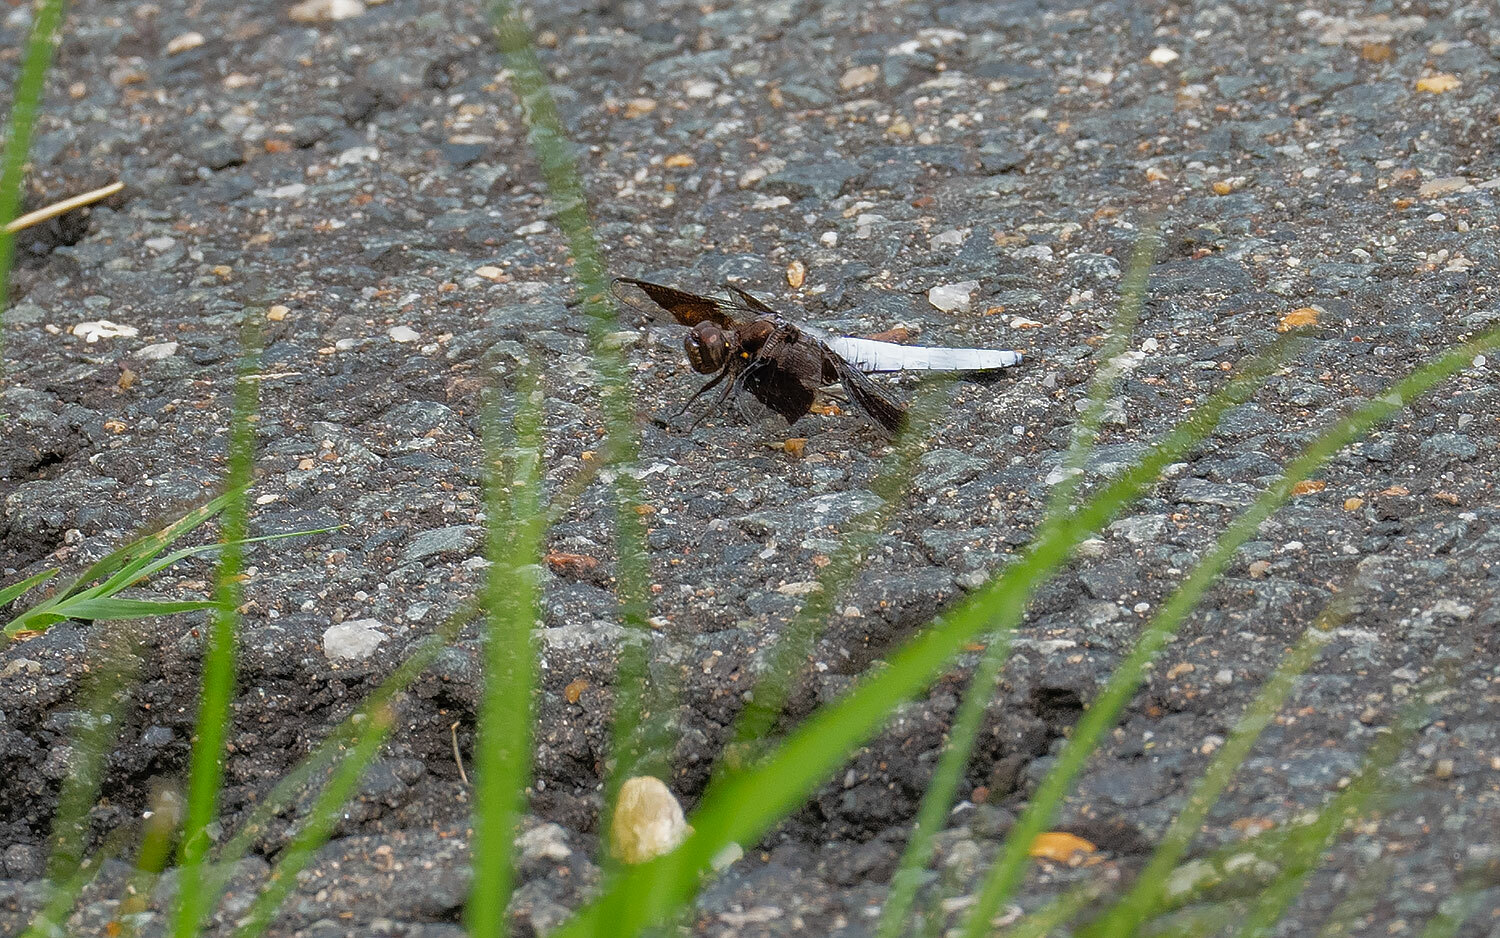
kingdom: Animalia
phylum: Arthropoda
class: Insecta
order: Odonata
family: Libellulidae
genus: Plathemis
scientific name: Plathemis lydia
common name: Common whitetail
